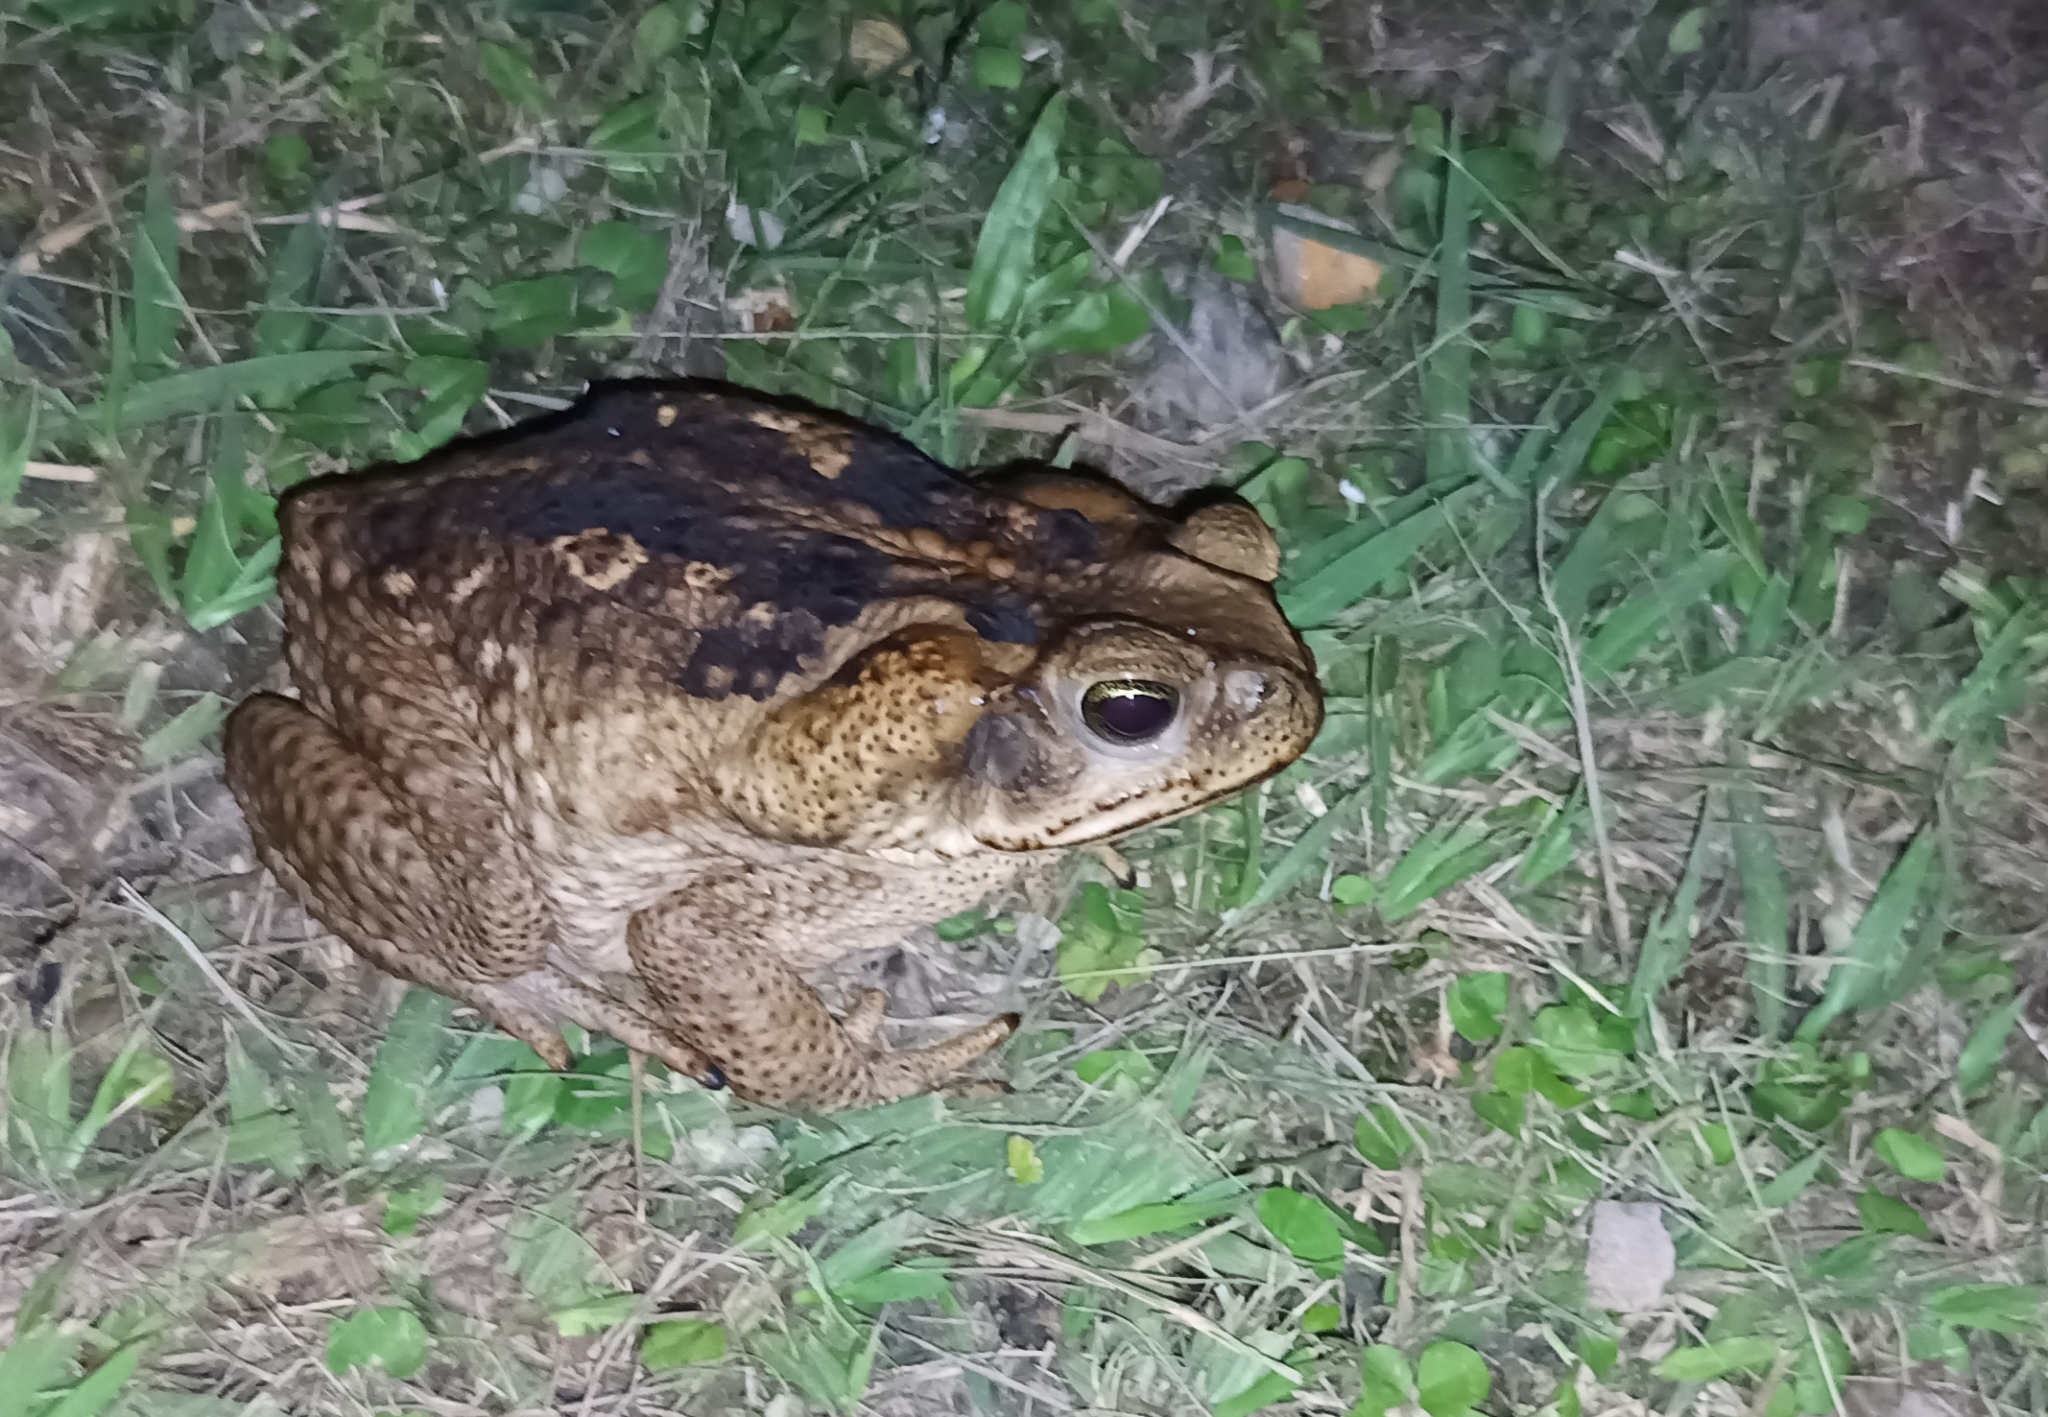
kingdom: Animalia
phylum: Chordata
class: Amphibia
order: Anura
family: Bufonidae
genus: Rhinella
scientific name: Rhinella horribilis
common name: Mesoamerican cane toad
